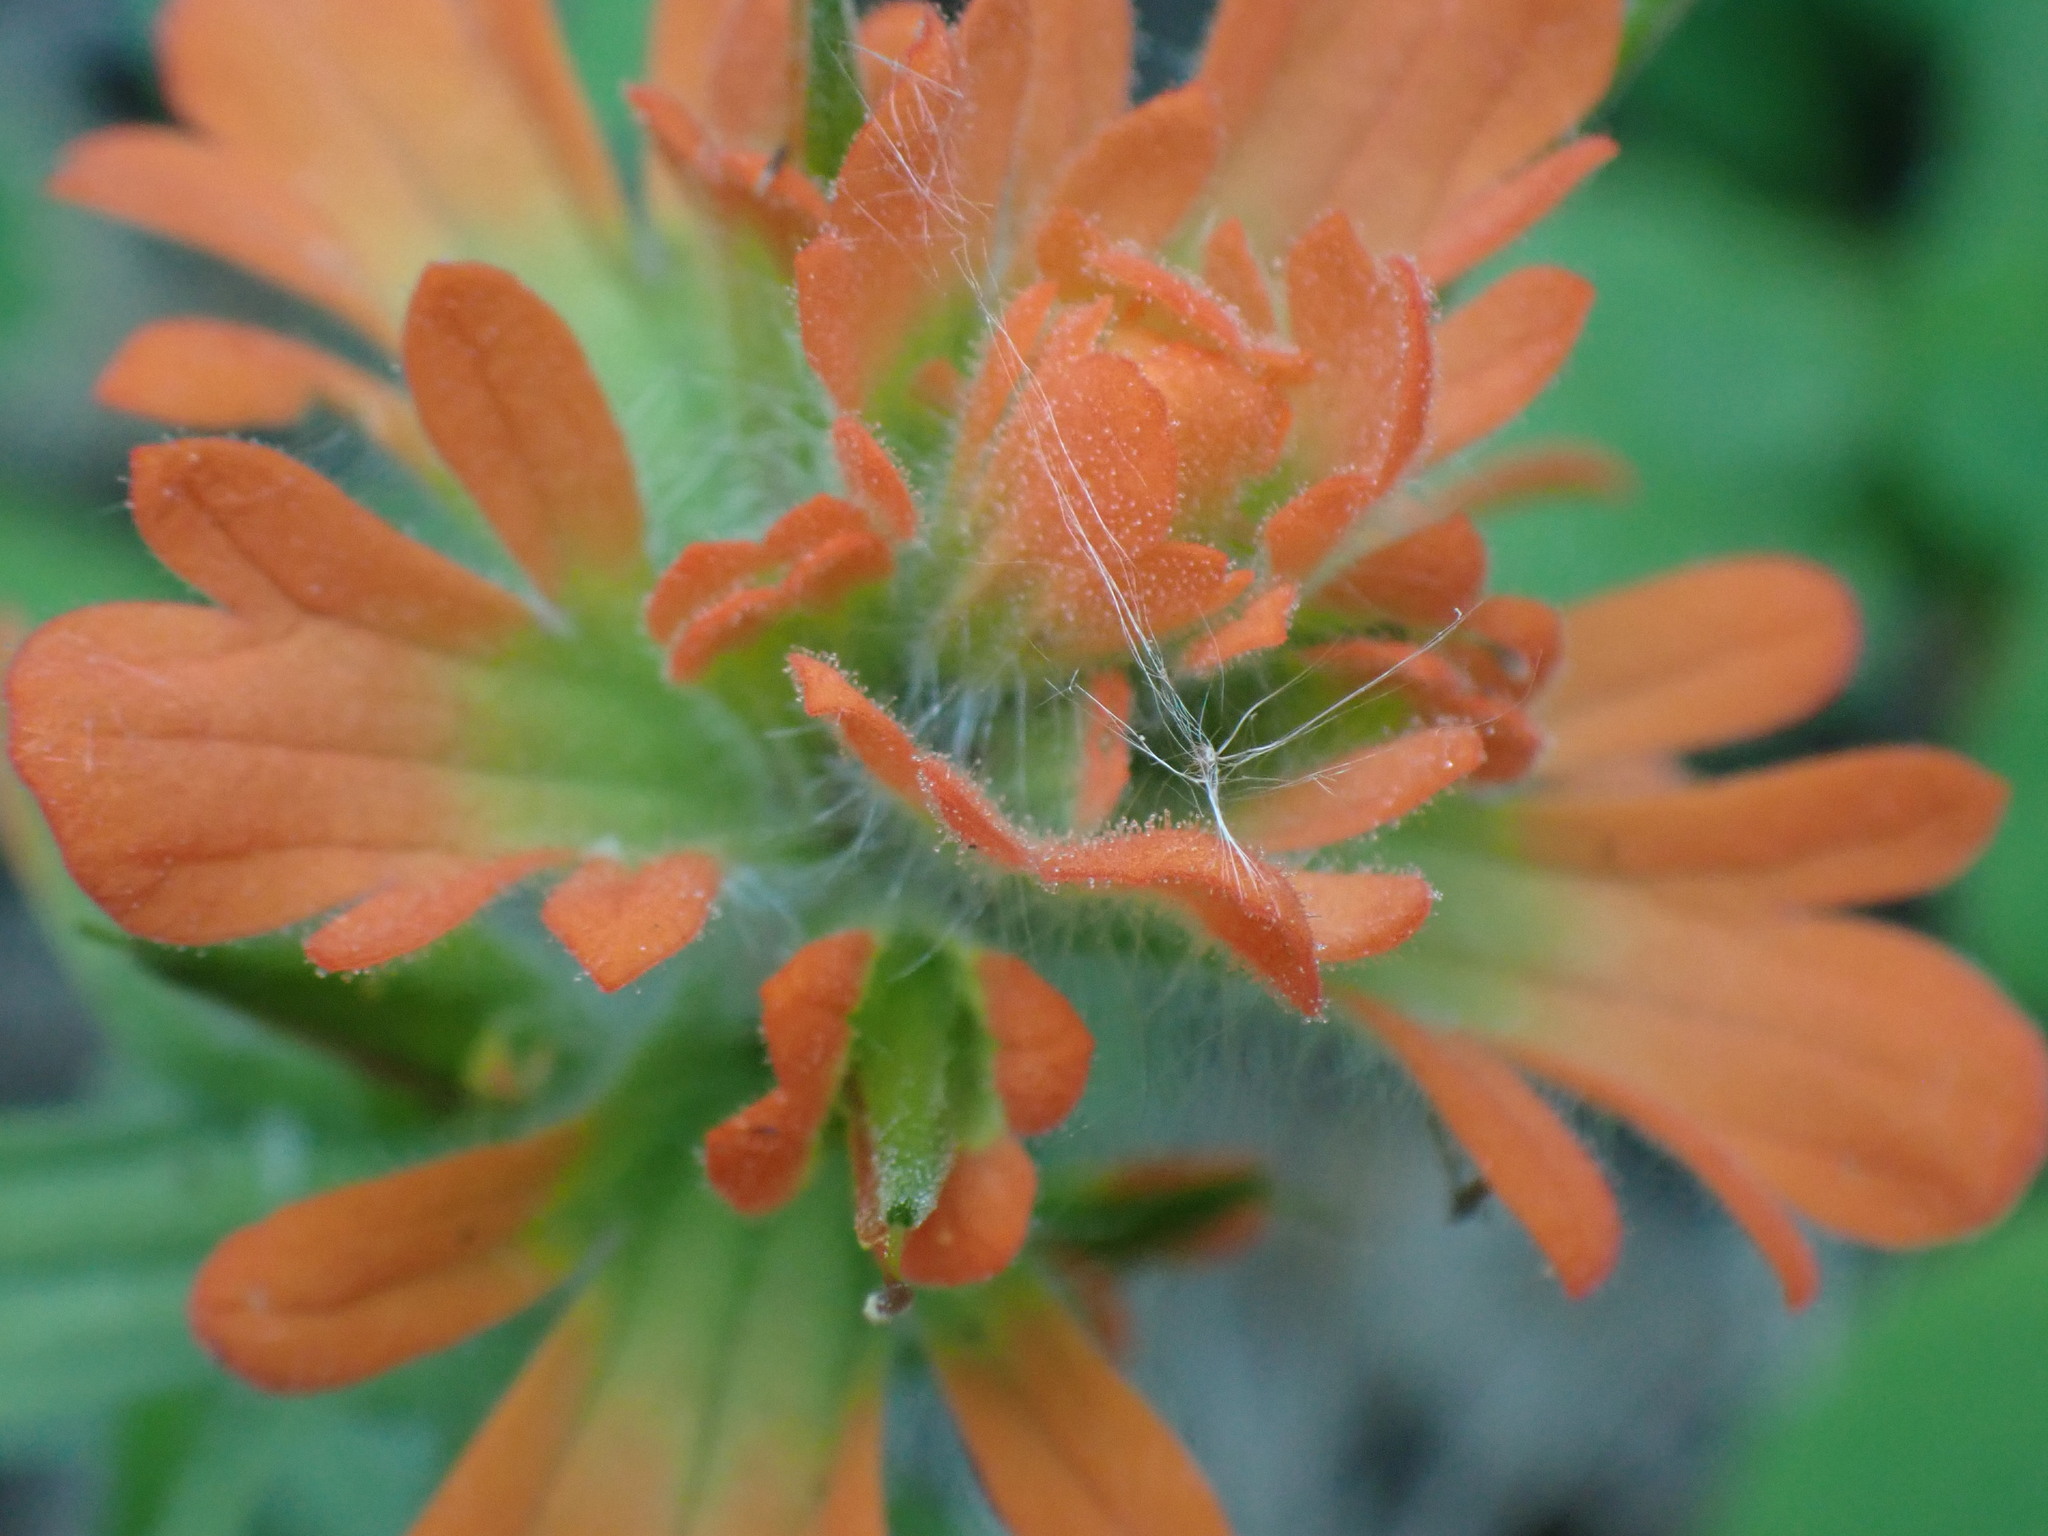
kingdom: Plantae
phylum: Tracheophyta
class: Magnoliopsida
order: Lamiales
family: Orobanchaceae
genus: Castilleja
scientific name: Castilleja hispida
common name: Bristly paintbrush
